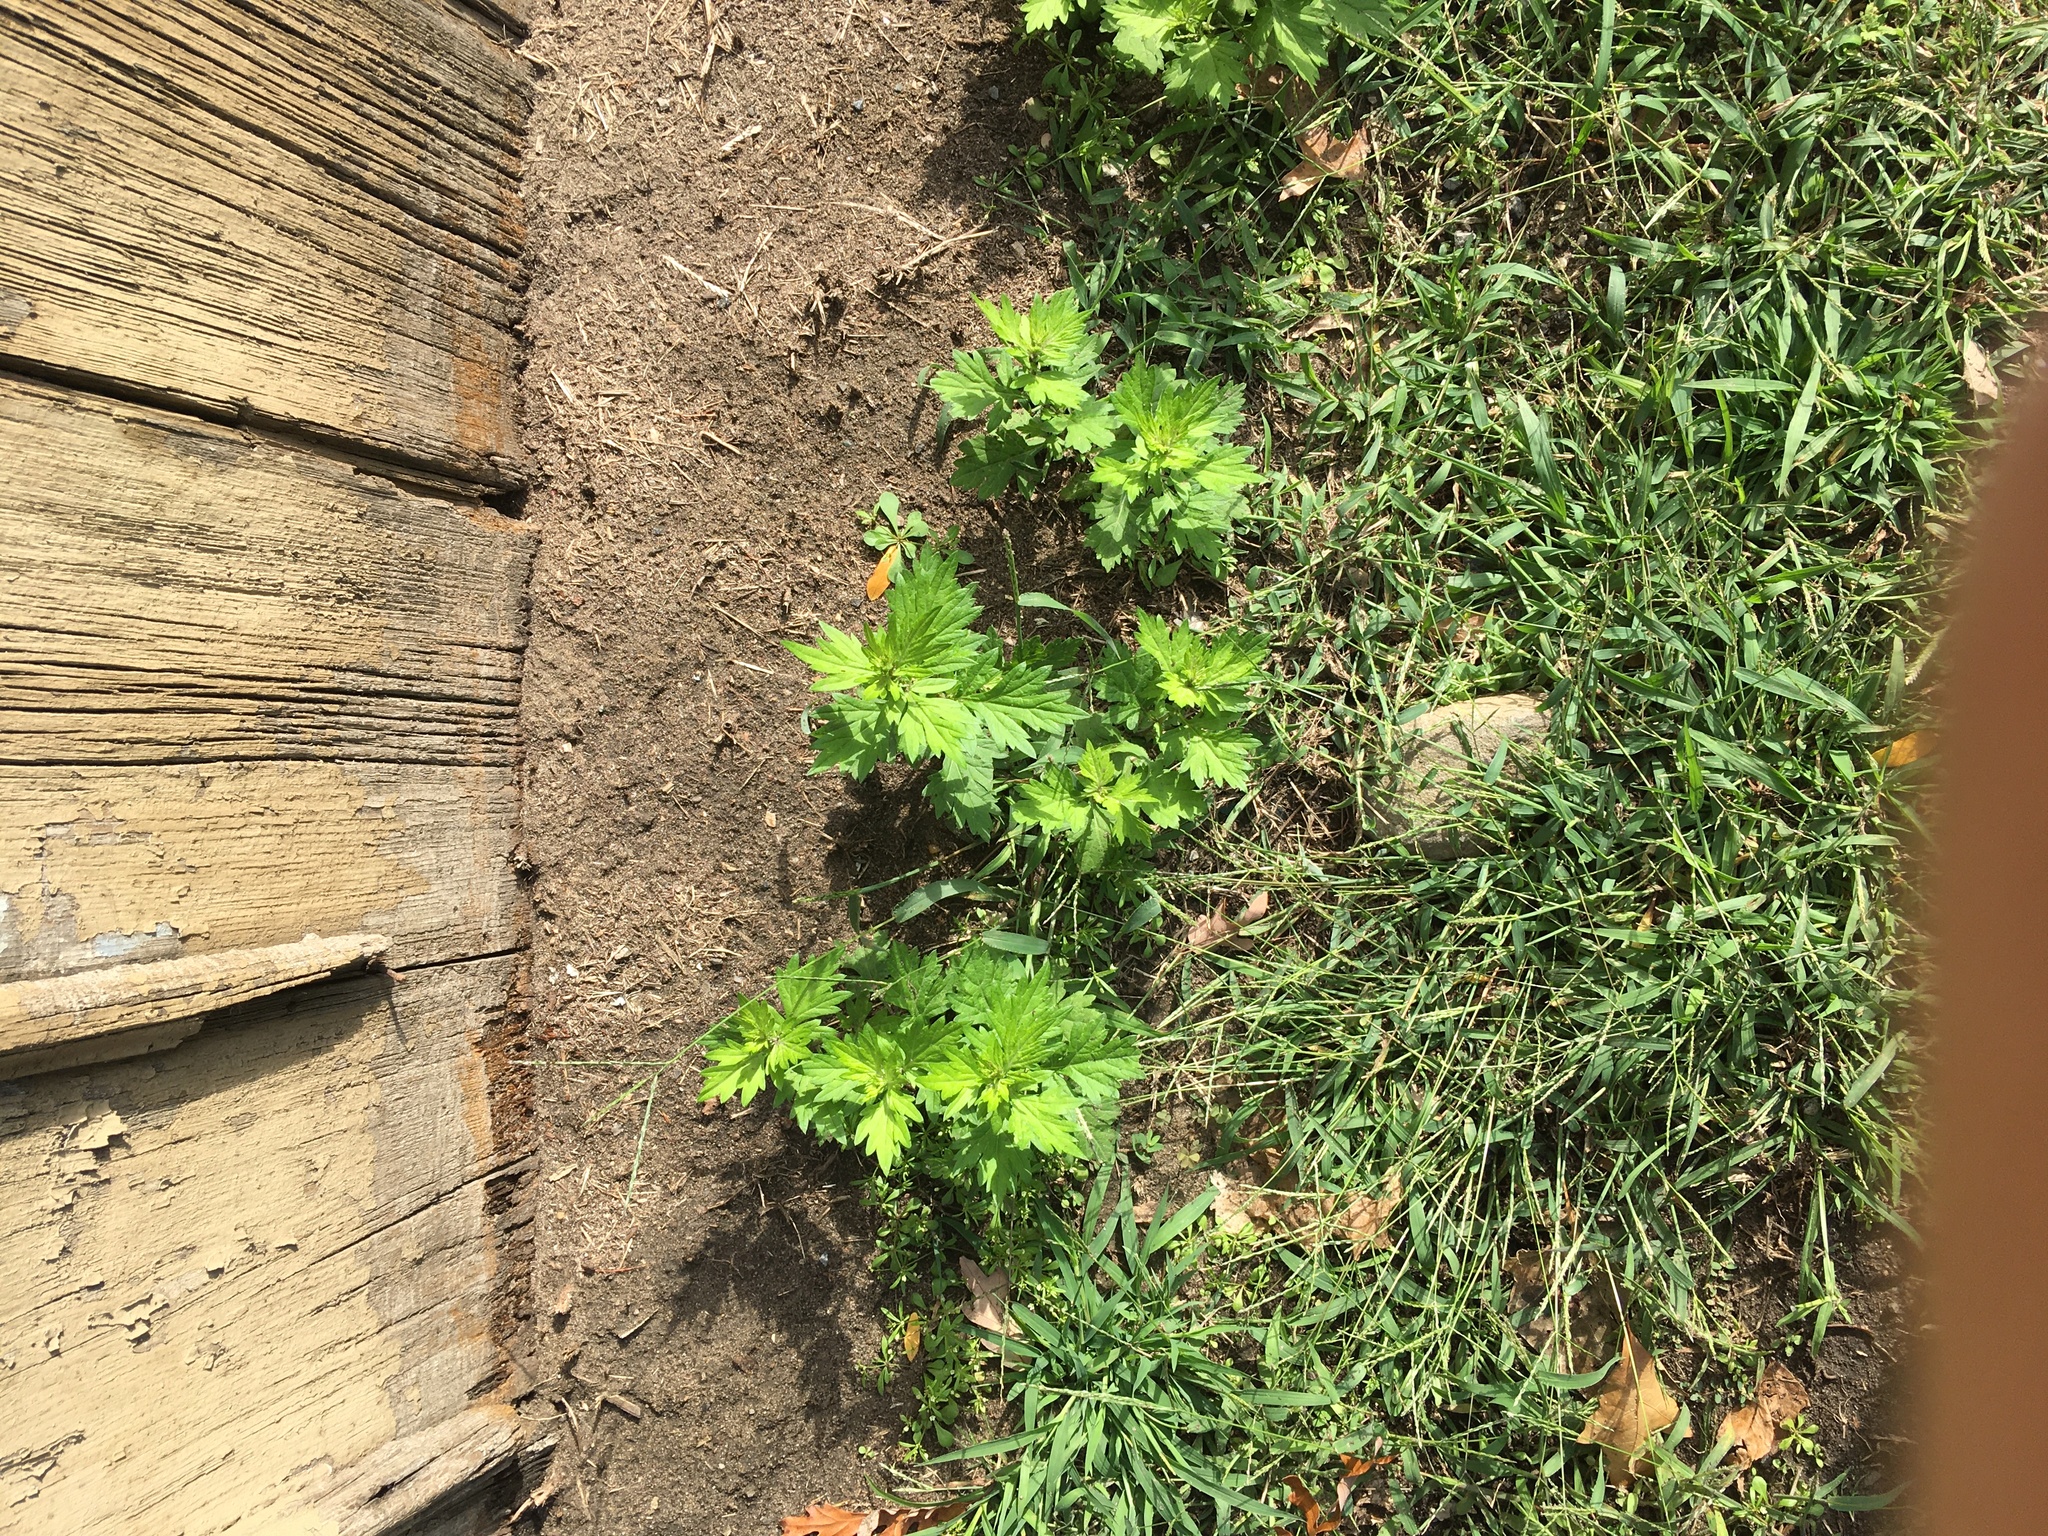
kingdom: Plantae
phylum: Tracheophyta
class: Magnoliopsida
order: Asterales
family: Asteraceae
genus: Artemisia
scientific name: Artemisia vulgaris
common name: Mugwort
